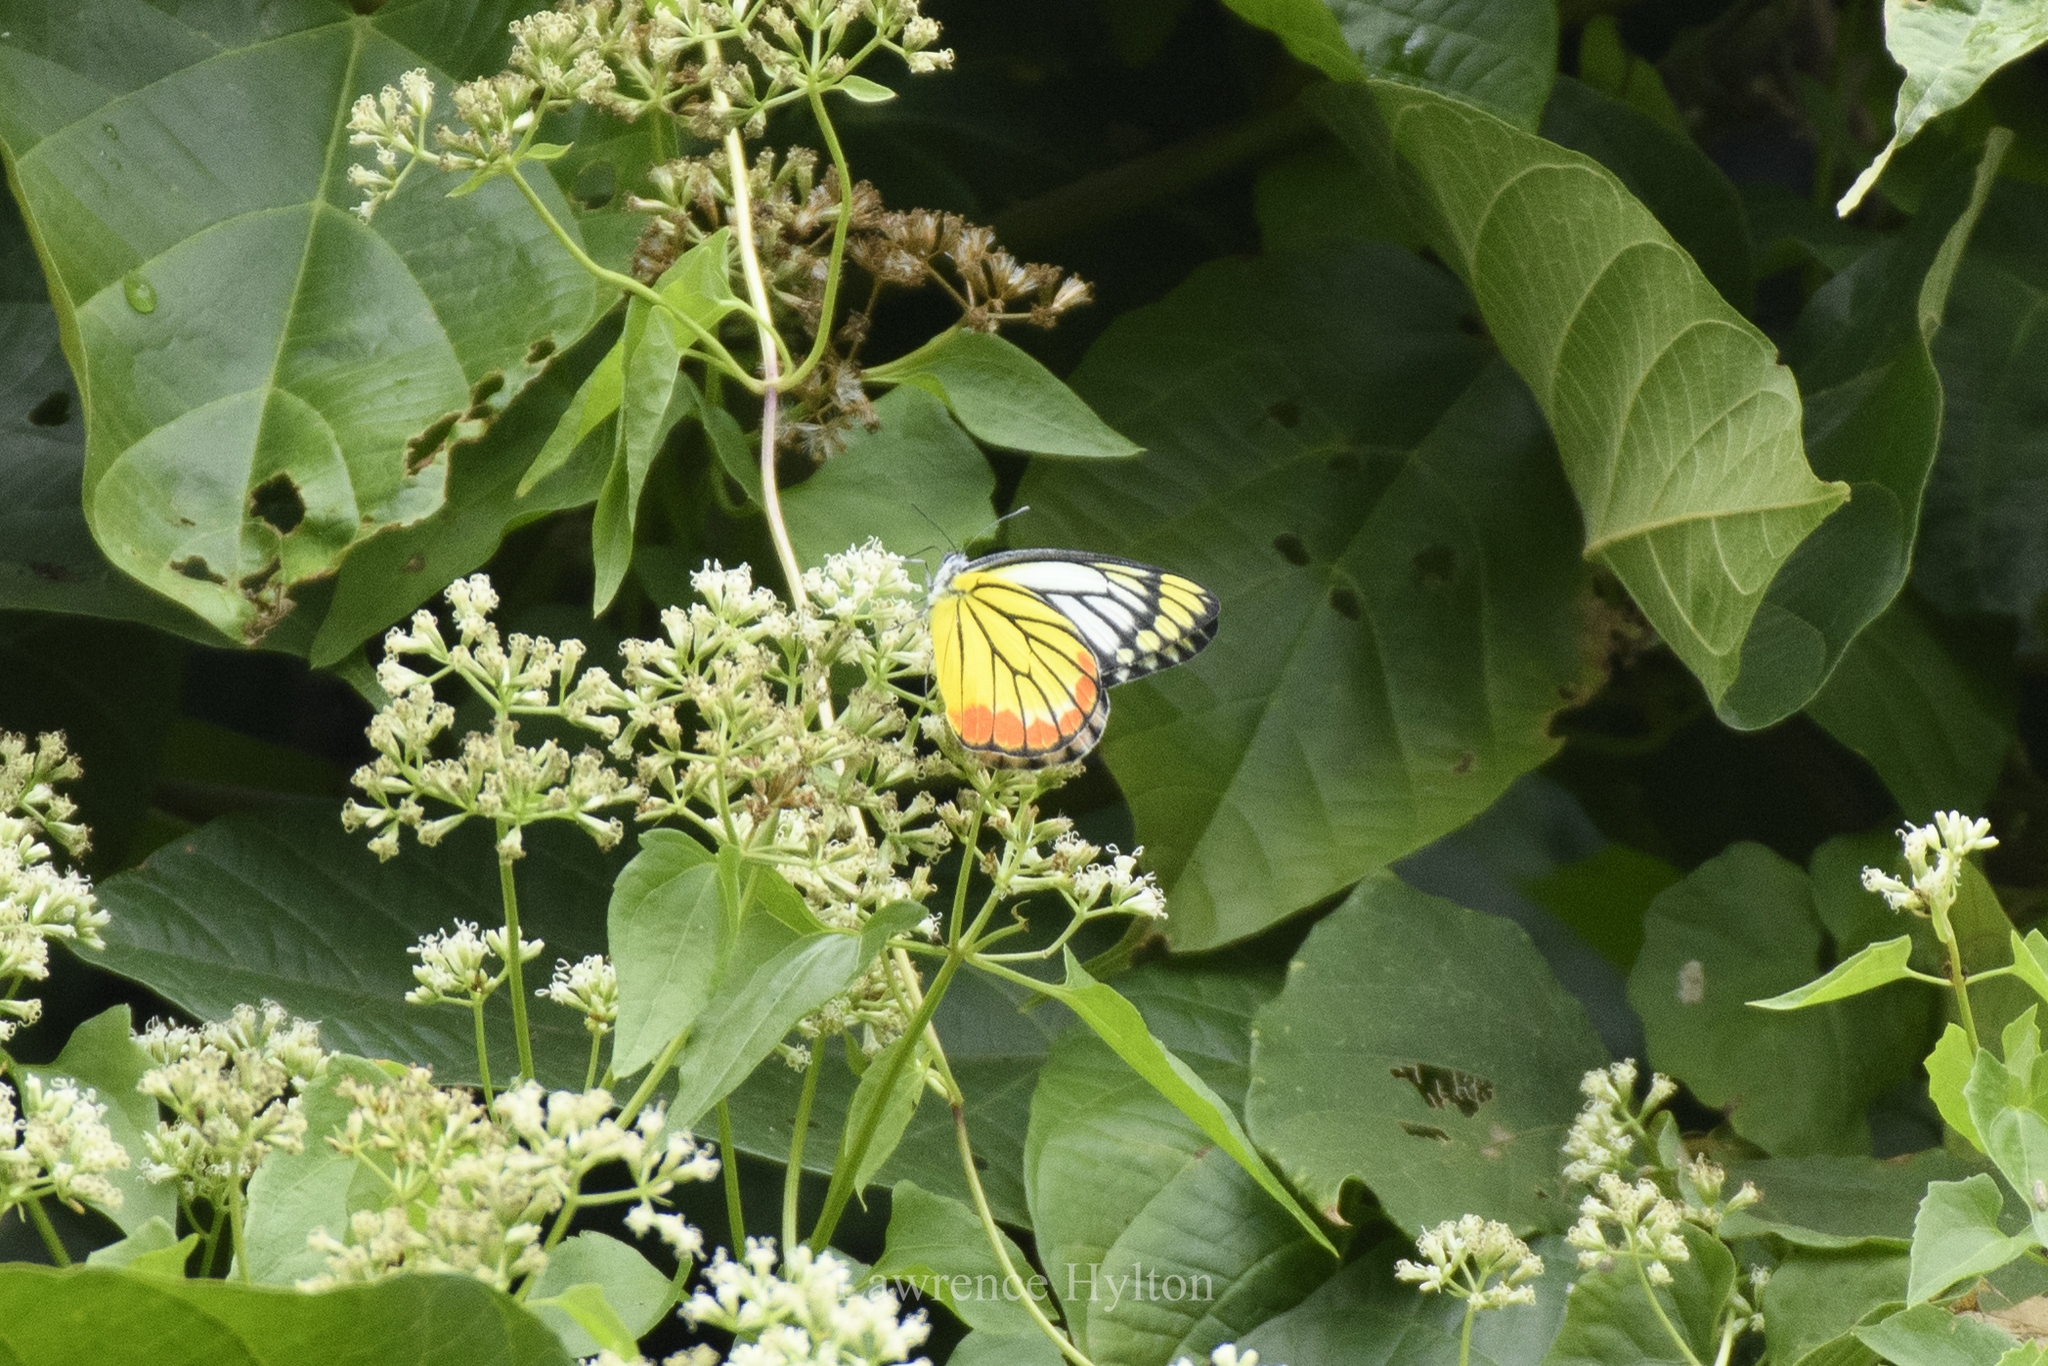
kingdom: Animalia
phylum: Arthropoda
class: Insecta
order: Lepidoptera
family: Pieridae
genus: Delias
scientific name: Delias hyparete
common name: Painted jezebel
